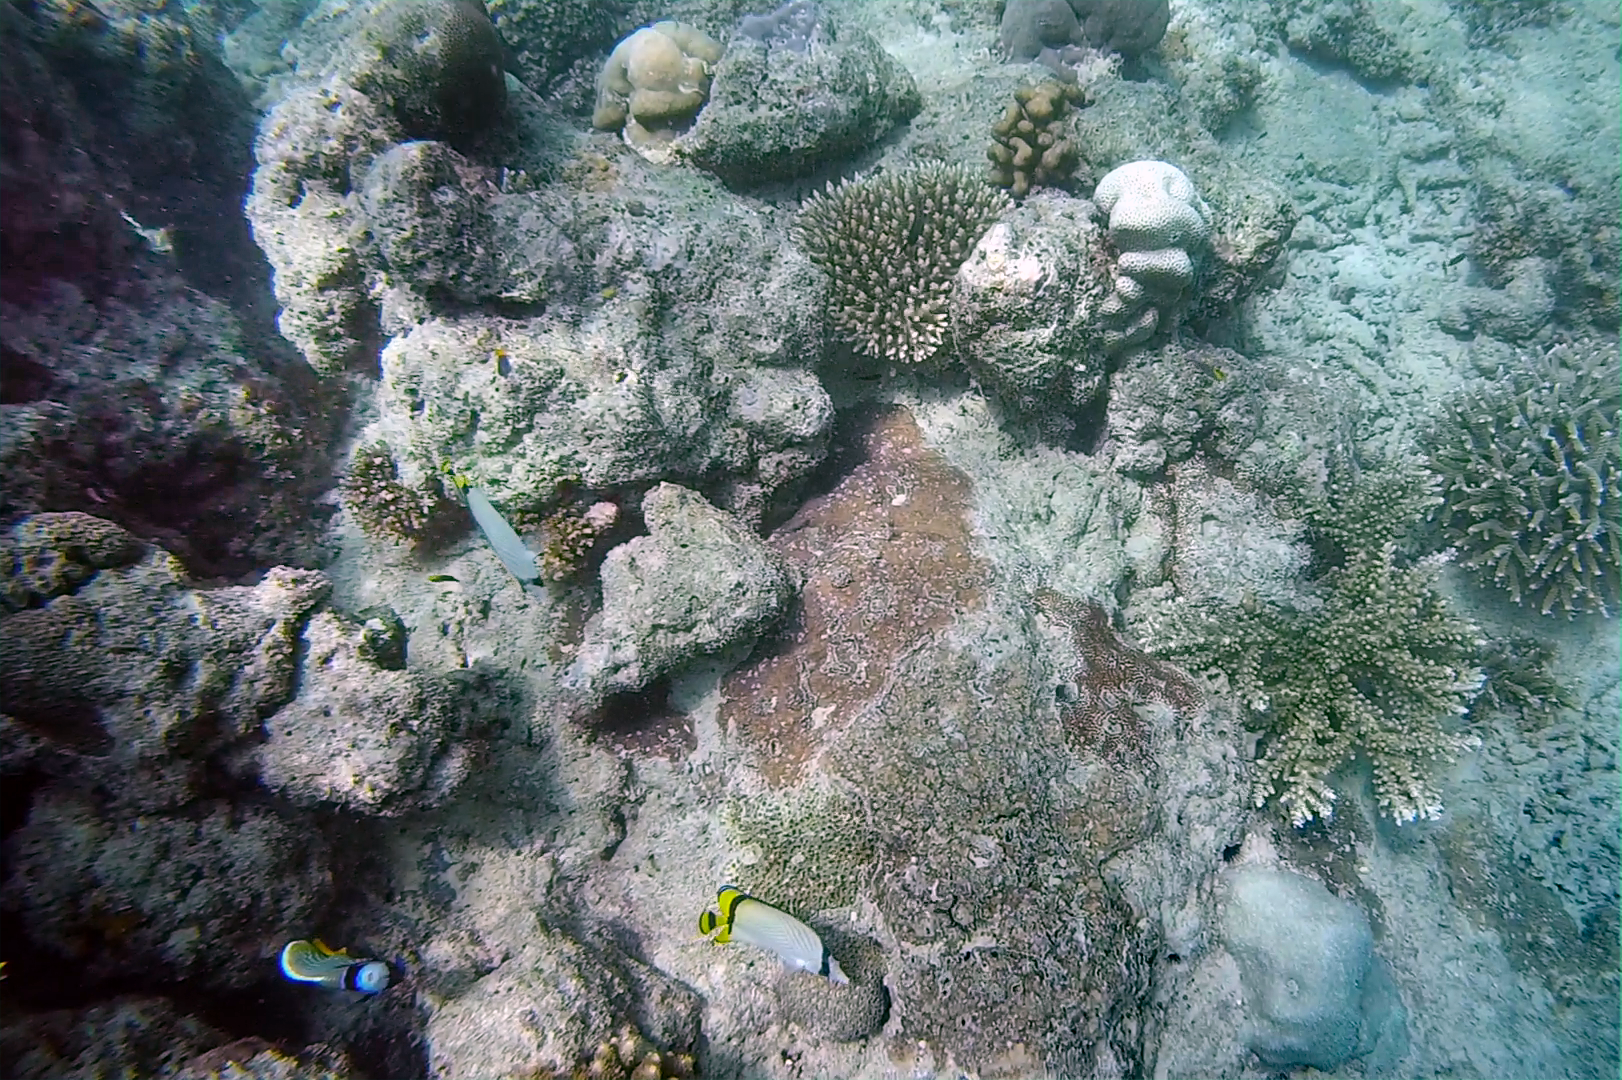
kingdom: Animalia
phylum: Chordata
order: Perciformes
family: Chaetodontidae
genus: Chaetodon
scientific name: Chaetodon vagabundus
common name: Vagabond butterflyfish
